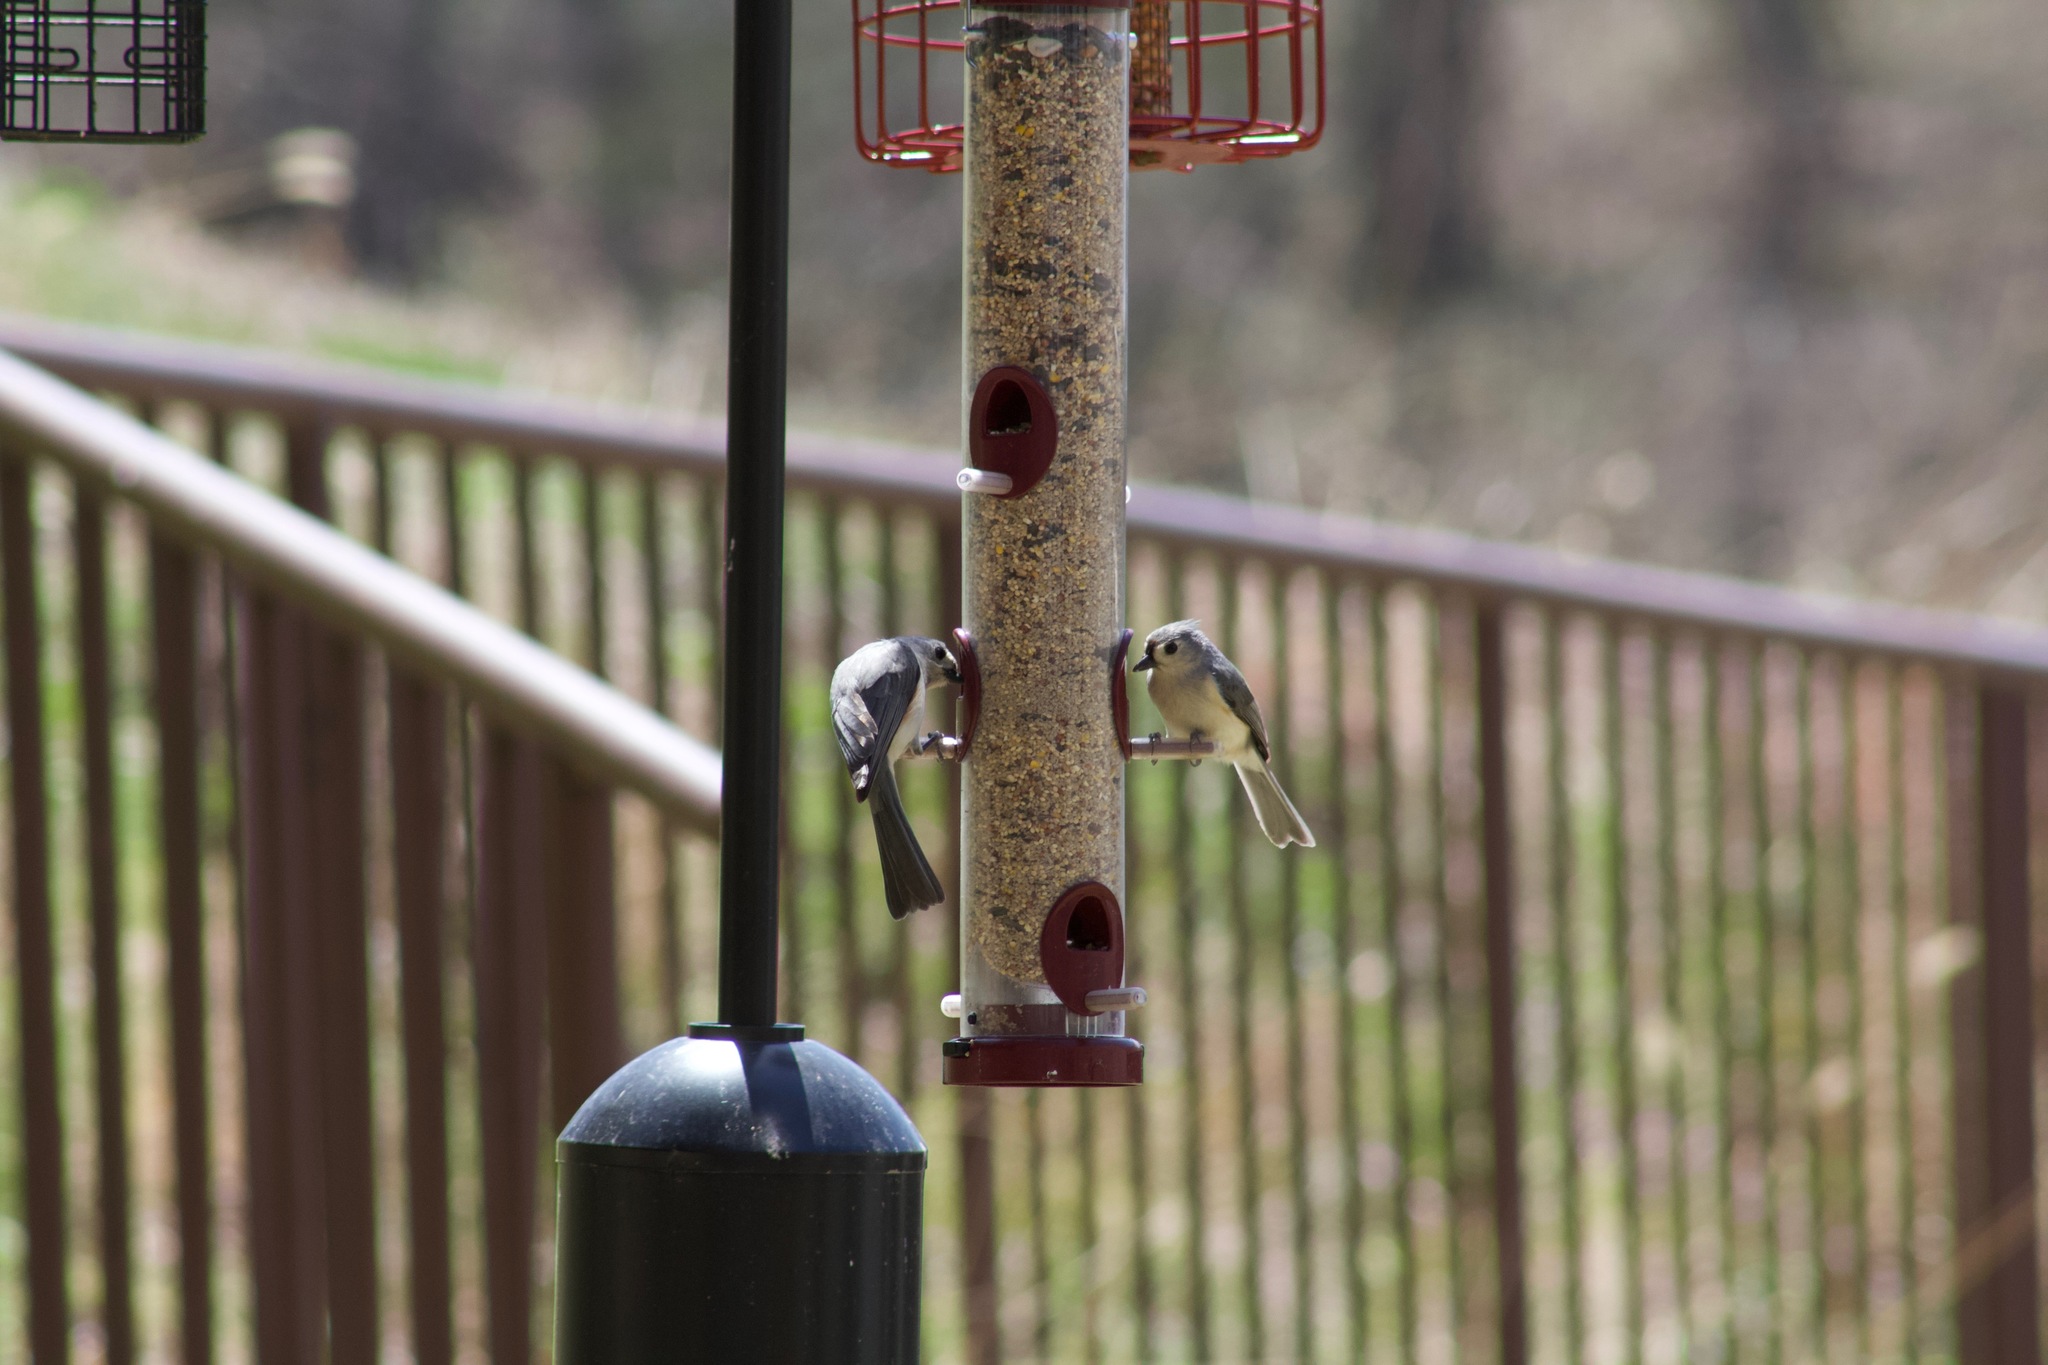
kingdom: Animalia
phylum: Chordata
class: Aves
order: Passeriformes
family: Paridae
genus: Baeolophus
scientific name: Baeolophus bicolor
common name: Tufted titmouse
